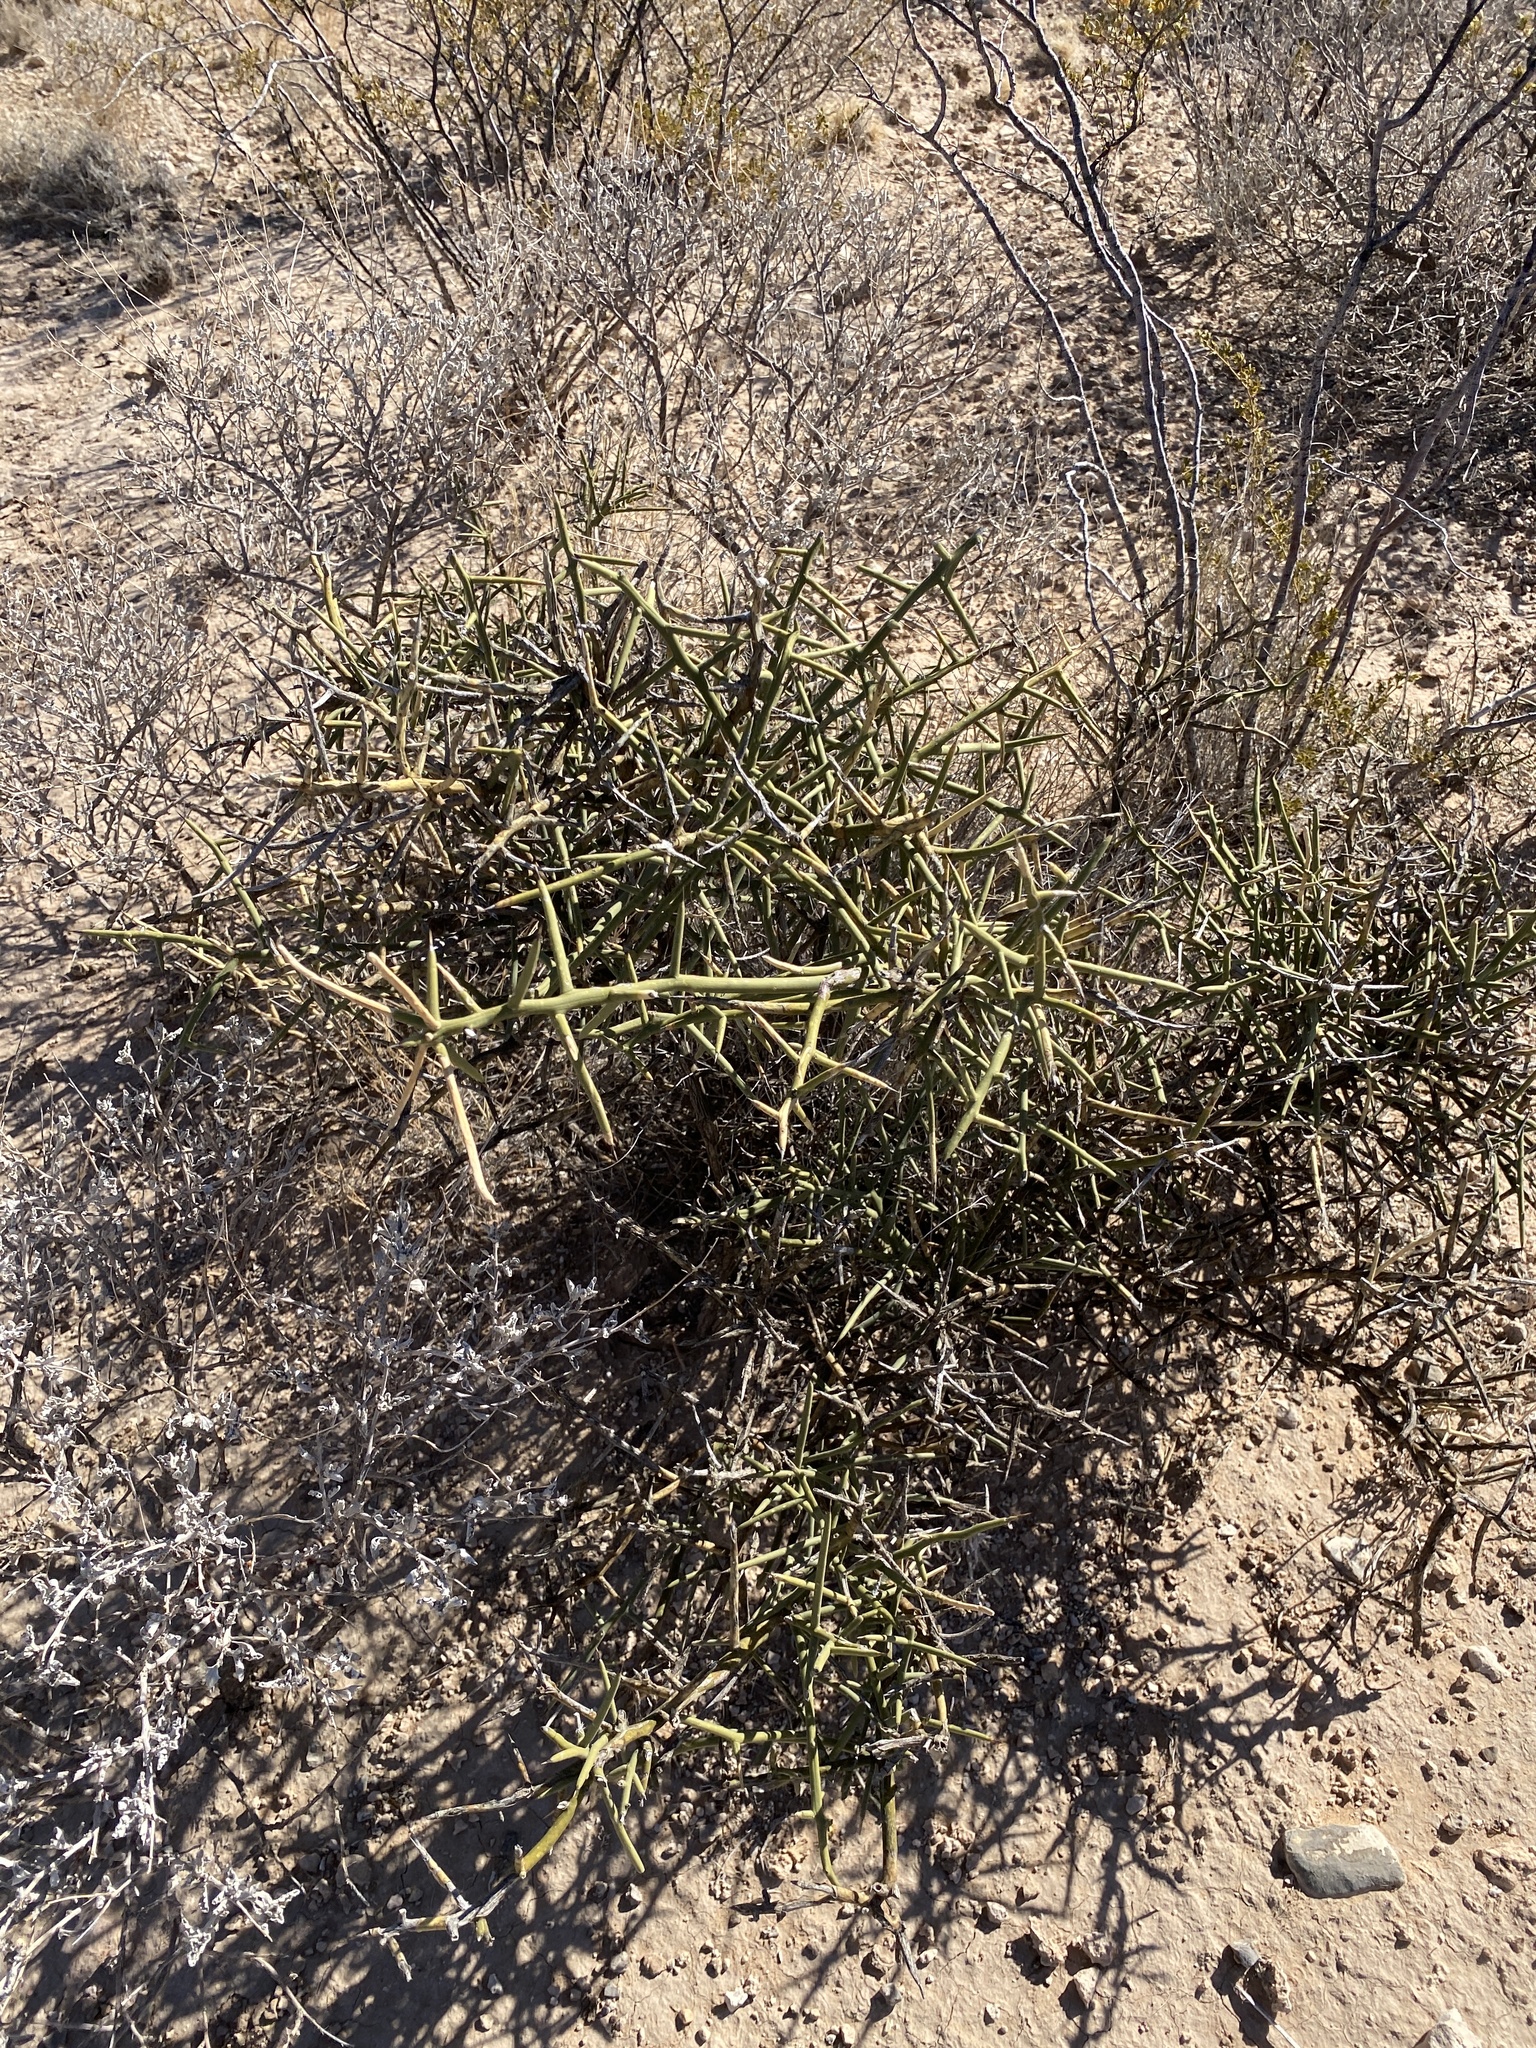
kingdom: Plantae
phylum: Tracheophyta
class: Magnoliopsida
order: Brassicales
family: Koeberliniaceae
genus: Koeberlinia
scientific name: Koeberlinia spinosa
